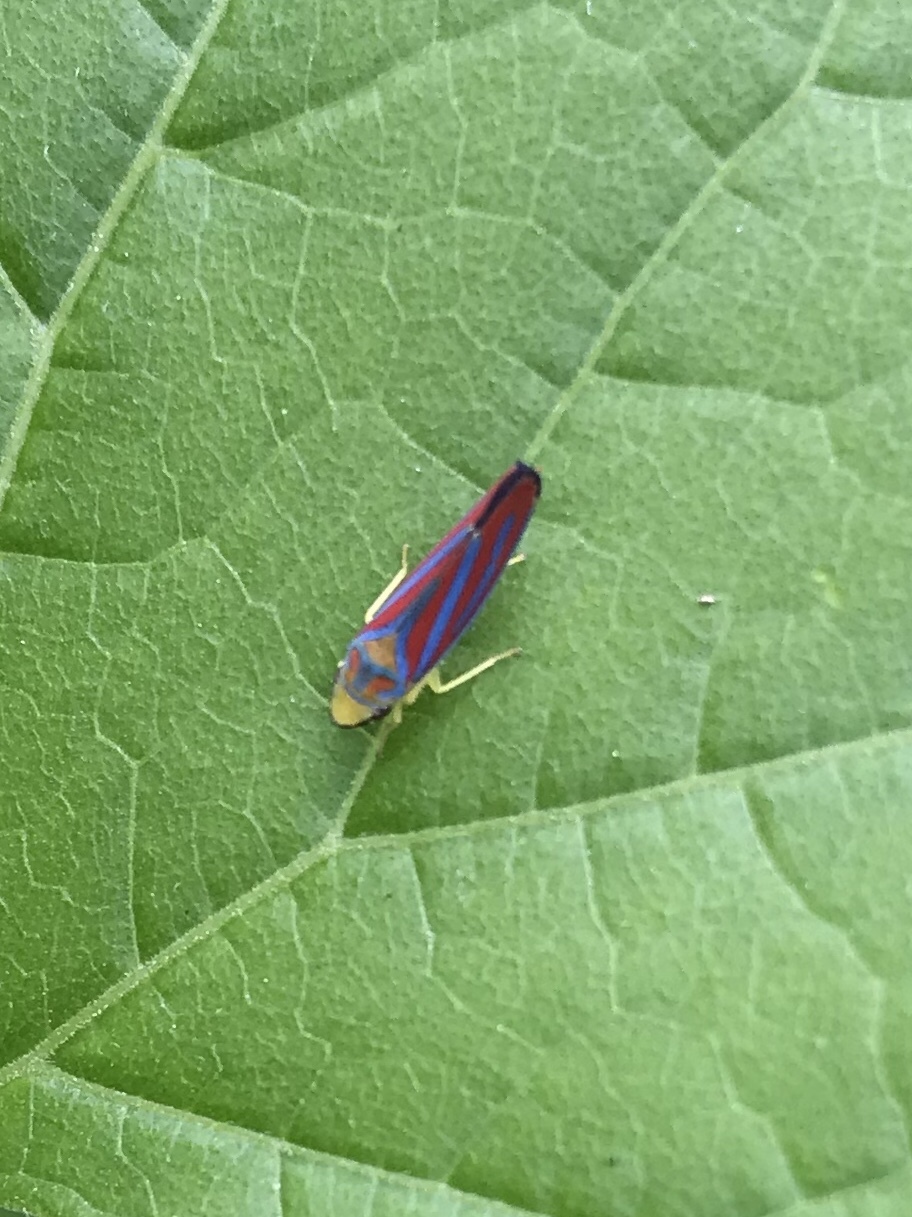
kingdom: Animalia
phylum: Arthropoda
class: Insecta
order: Hemiptera
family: Cicadellidae
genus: Graphocephala
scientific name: Graphocephala coccinea
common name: Candy-striped leafhopper
